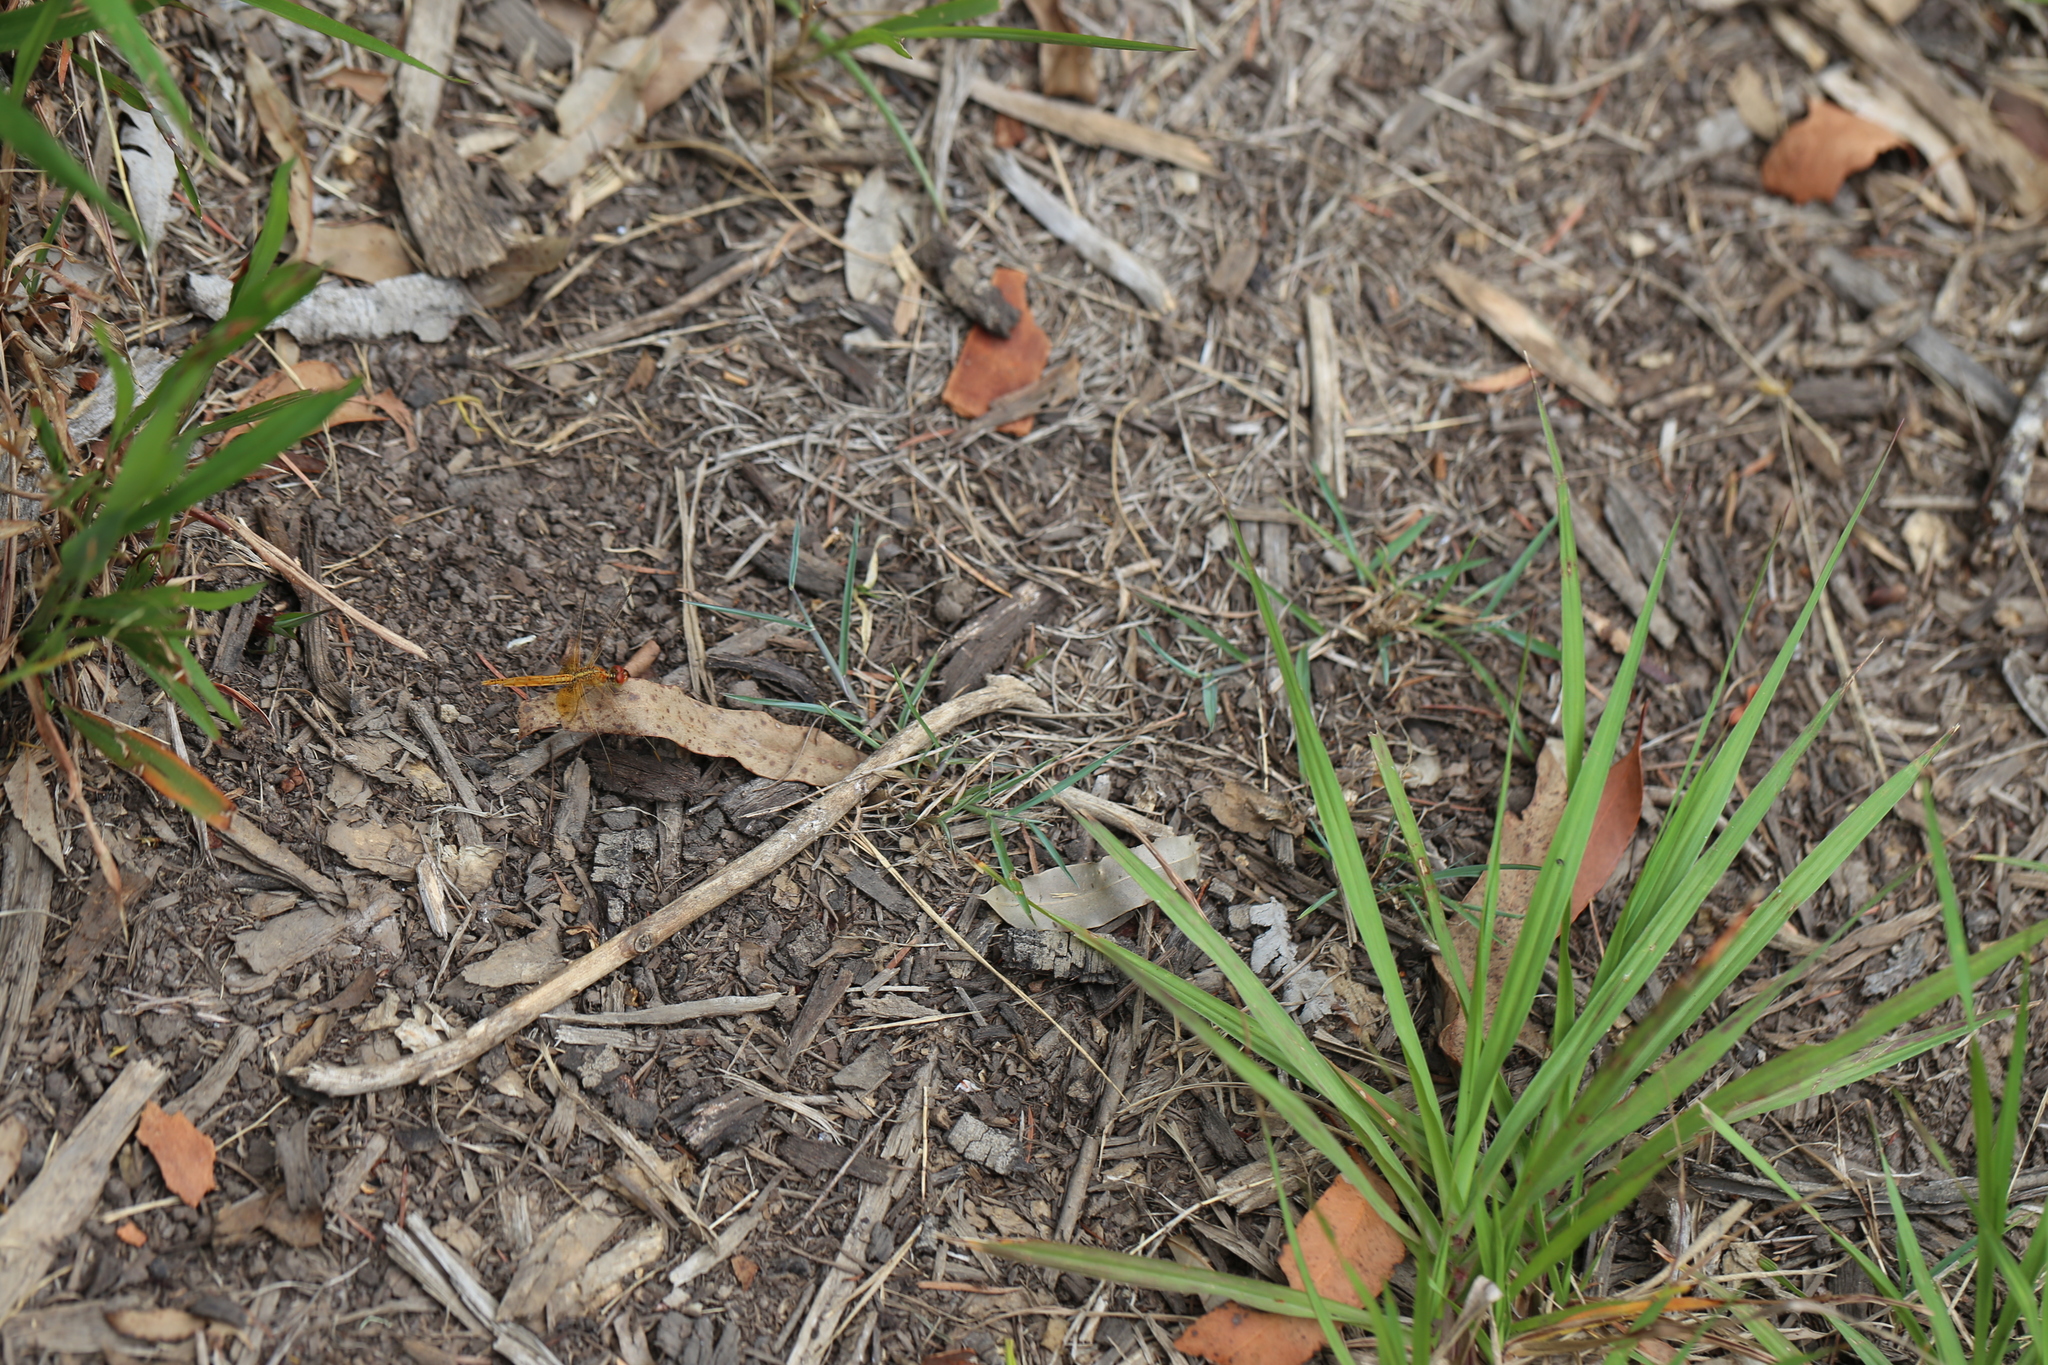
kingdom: Animalia
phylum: Arthropoda
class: Insecta
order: Odonata
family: Libellulidae
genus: Diplacodes
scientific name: Diplacodes haematodes
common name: Scarlet percher
